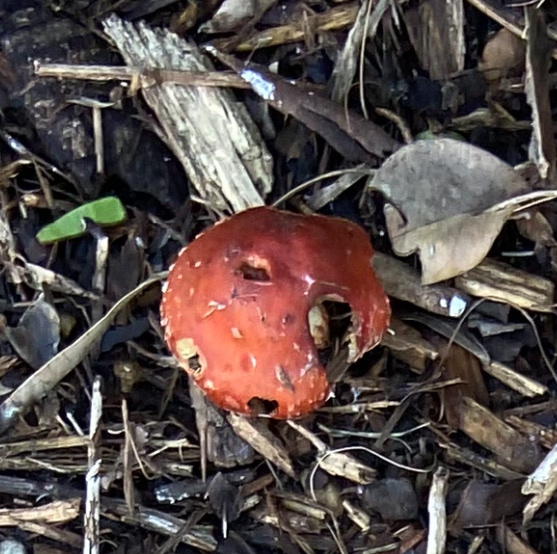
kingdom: Fungi
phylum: Basidiomycota
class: Agaricomycetes
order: Agaricales
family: Strophariaceae
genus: Leratiomyces
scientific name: Leratiomyces ceres
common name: Redlead roundhead
